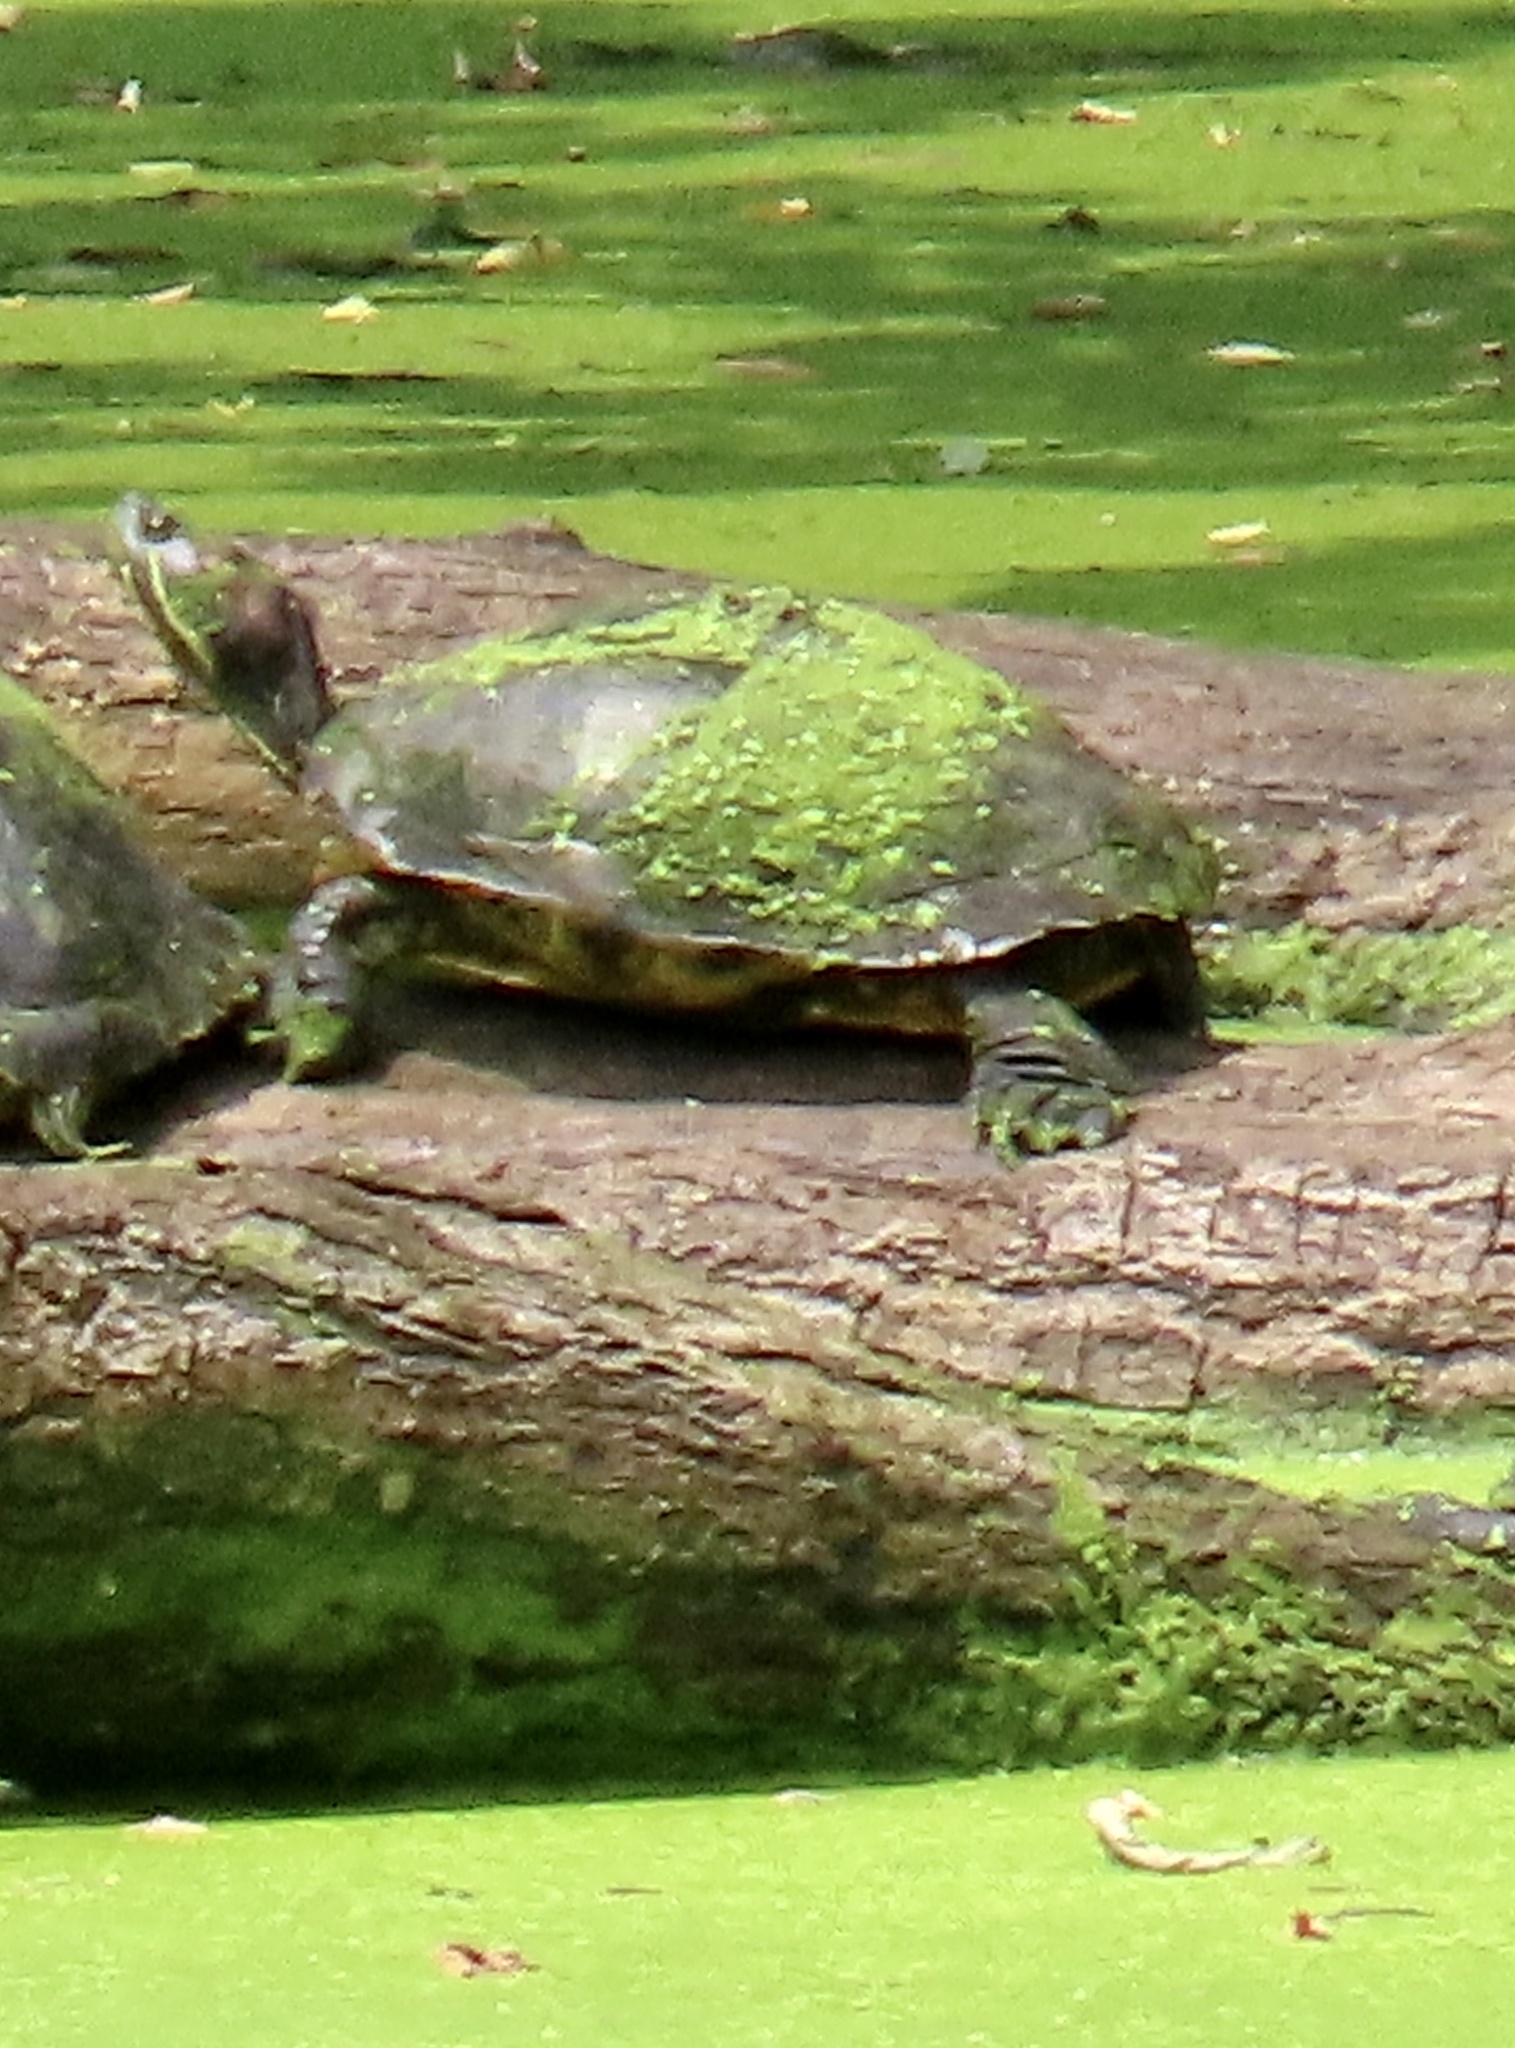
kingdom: Animalia
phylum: Chordata
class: Testudines
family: Emydidae
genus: Trachemys
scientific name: Trachemys scripta
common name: Slider
